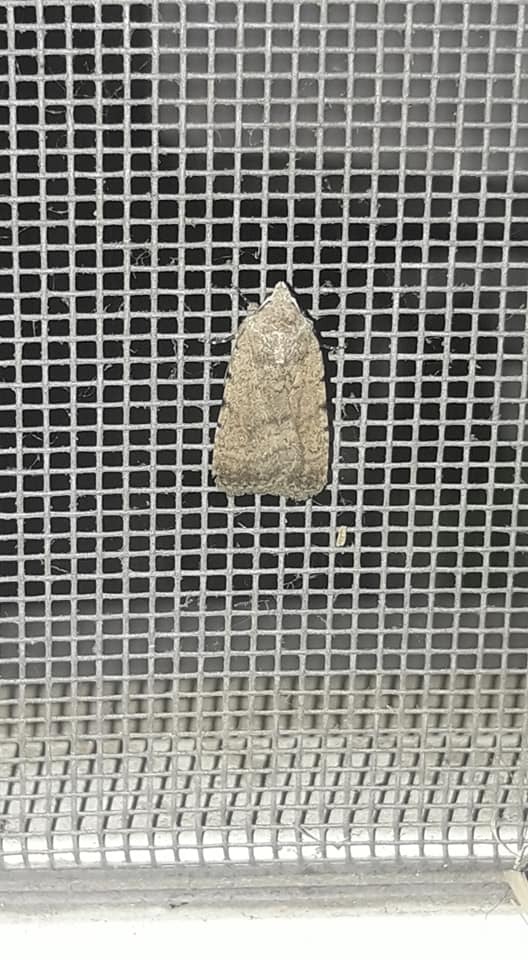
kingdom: Animalia
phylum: Arthropoda
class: Insecta
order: Lepidoptera
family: Noctuidae
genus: Caradrina
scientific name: Caradrina
